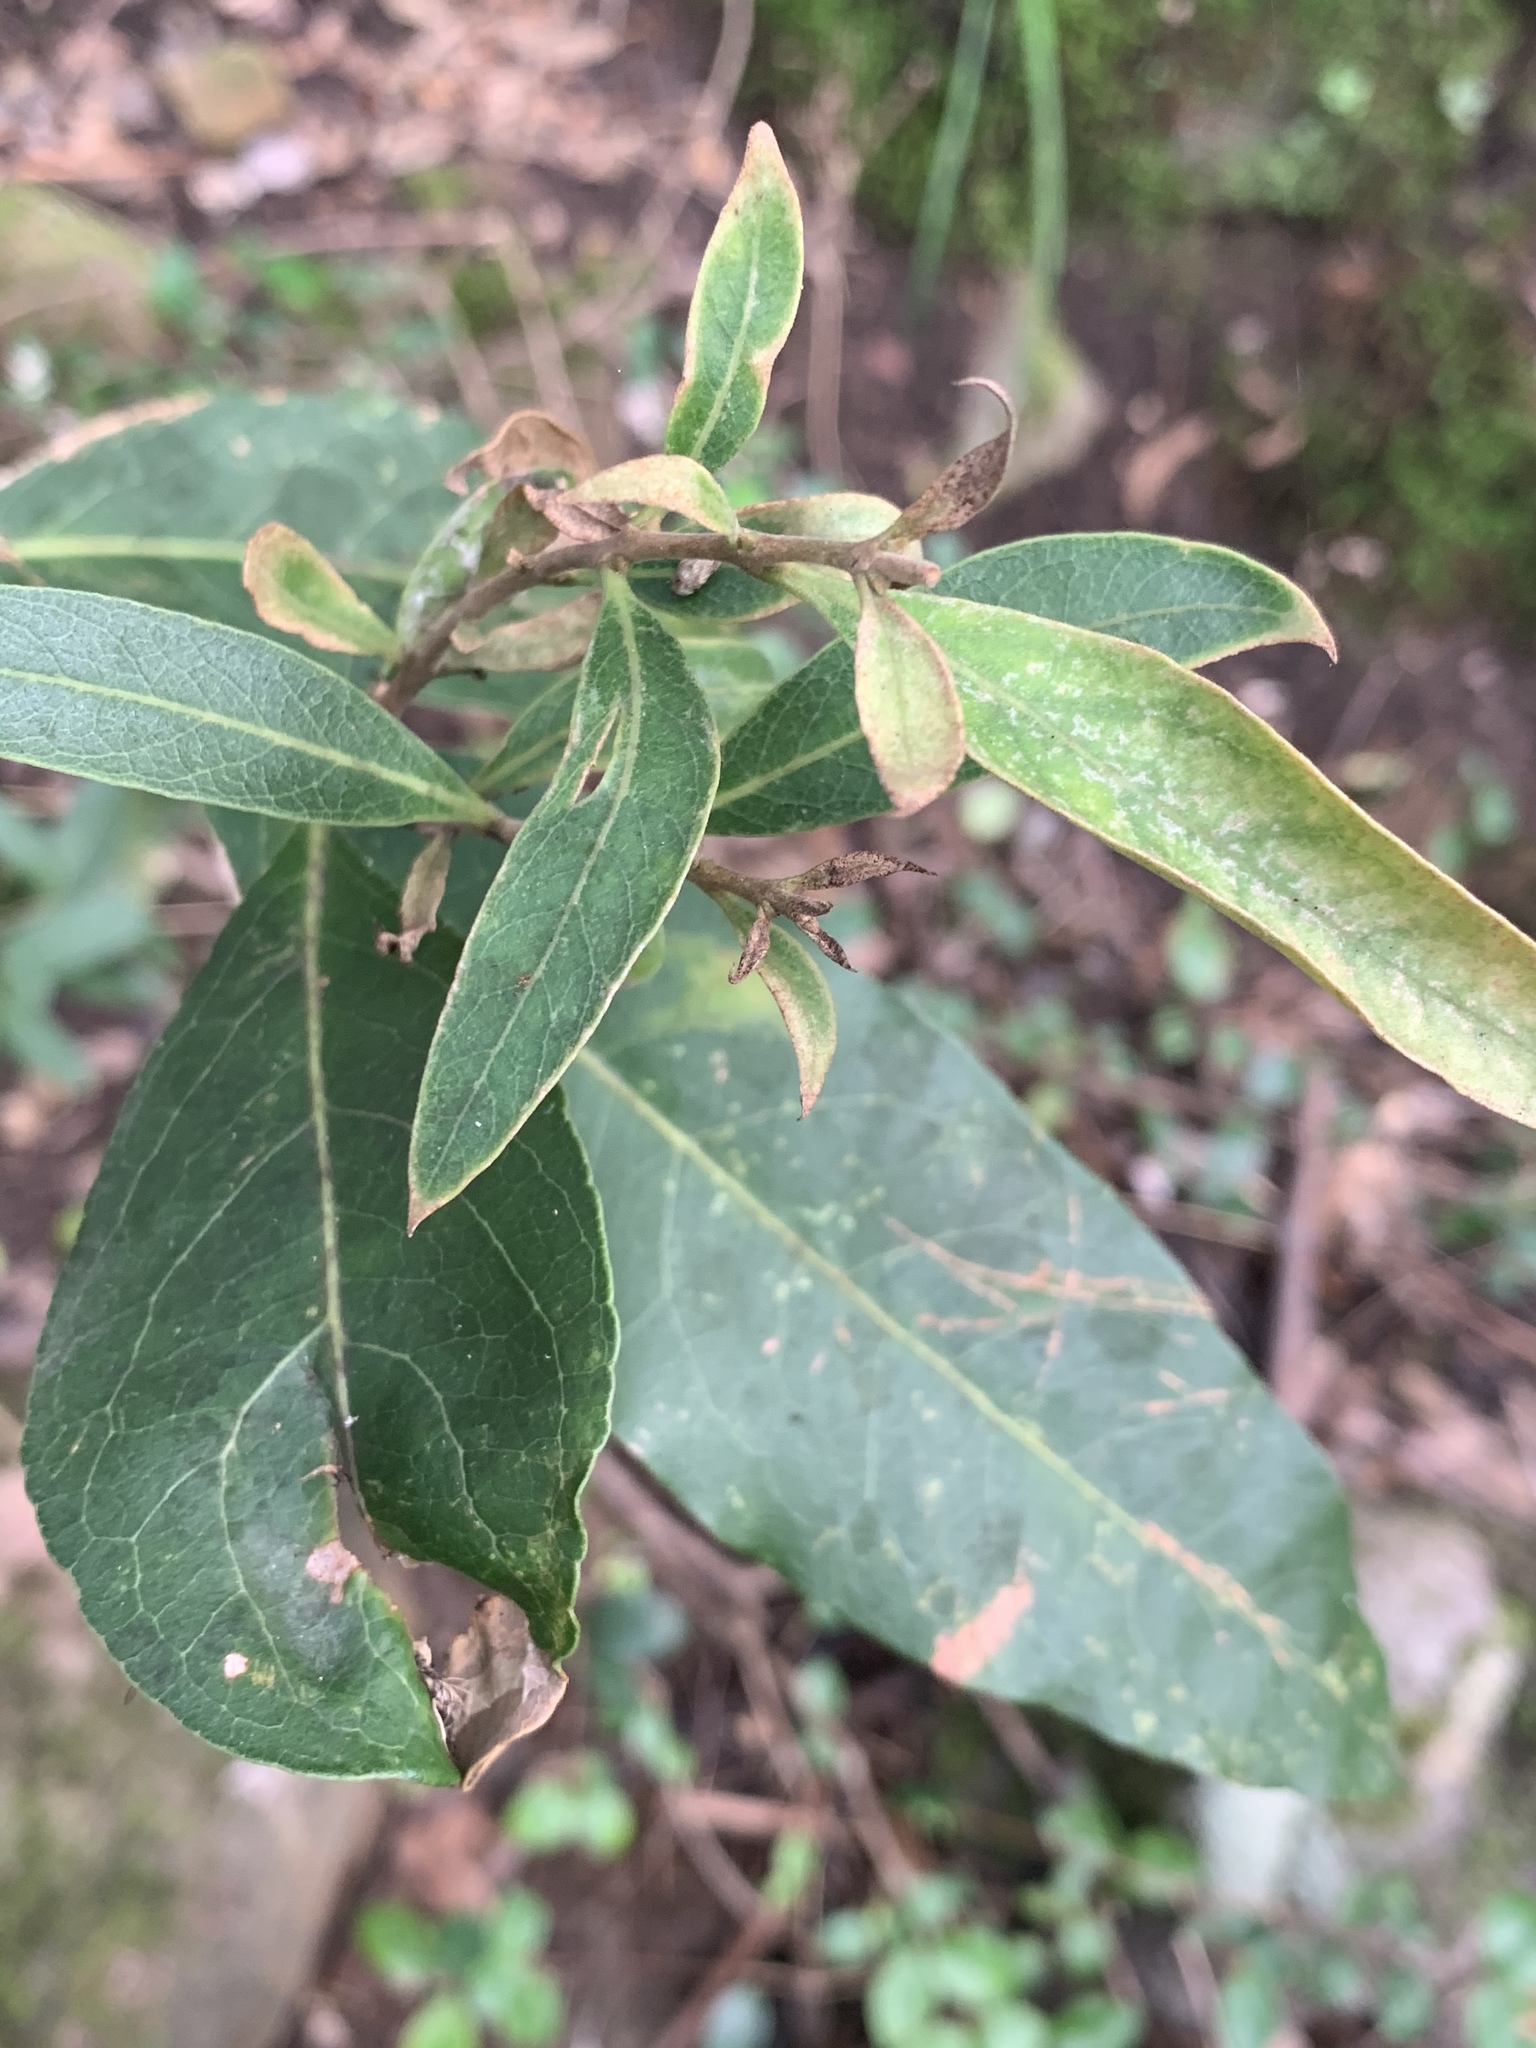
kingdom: Plantae
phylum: Tracheophyta
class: Magnoliopsida
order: Lamiales
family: Oleaceae
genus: Notelaea
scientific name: Notelaea longifolia
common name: Large mock olive
